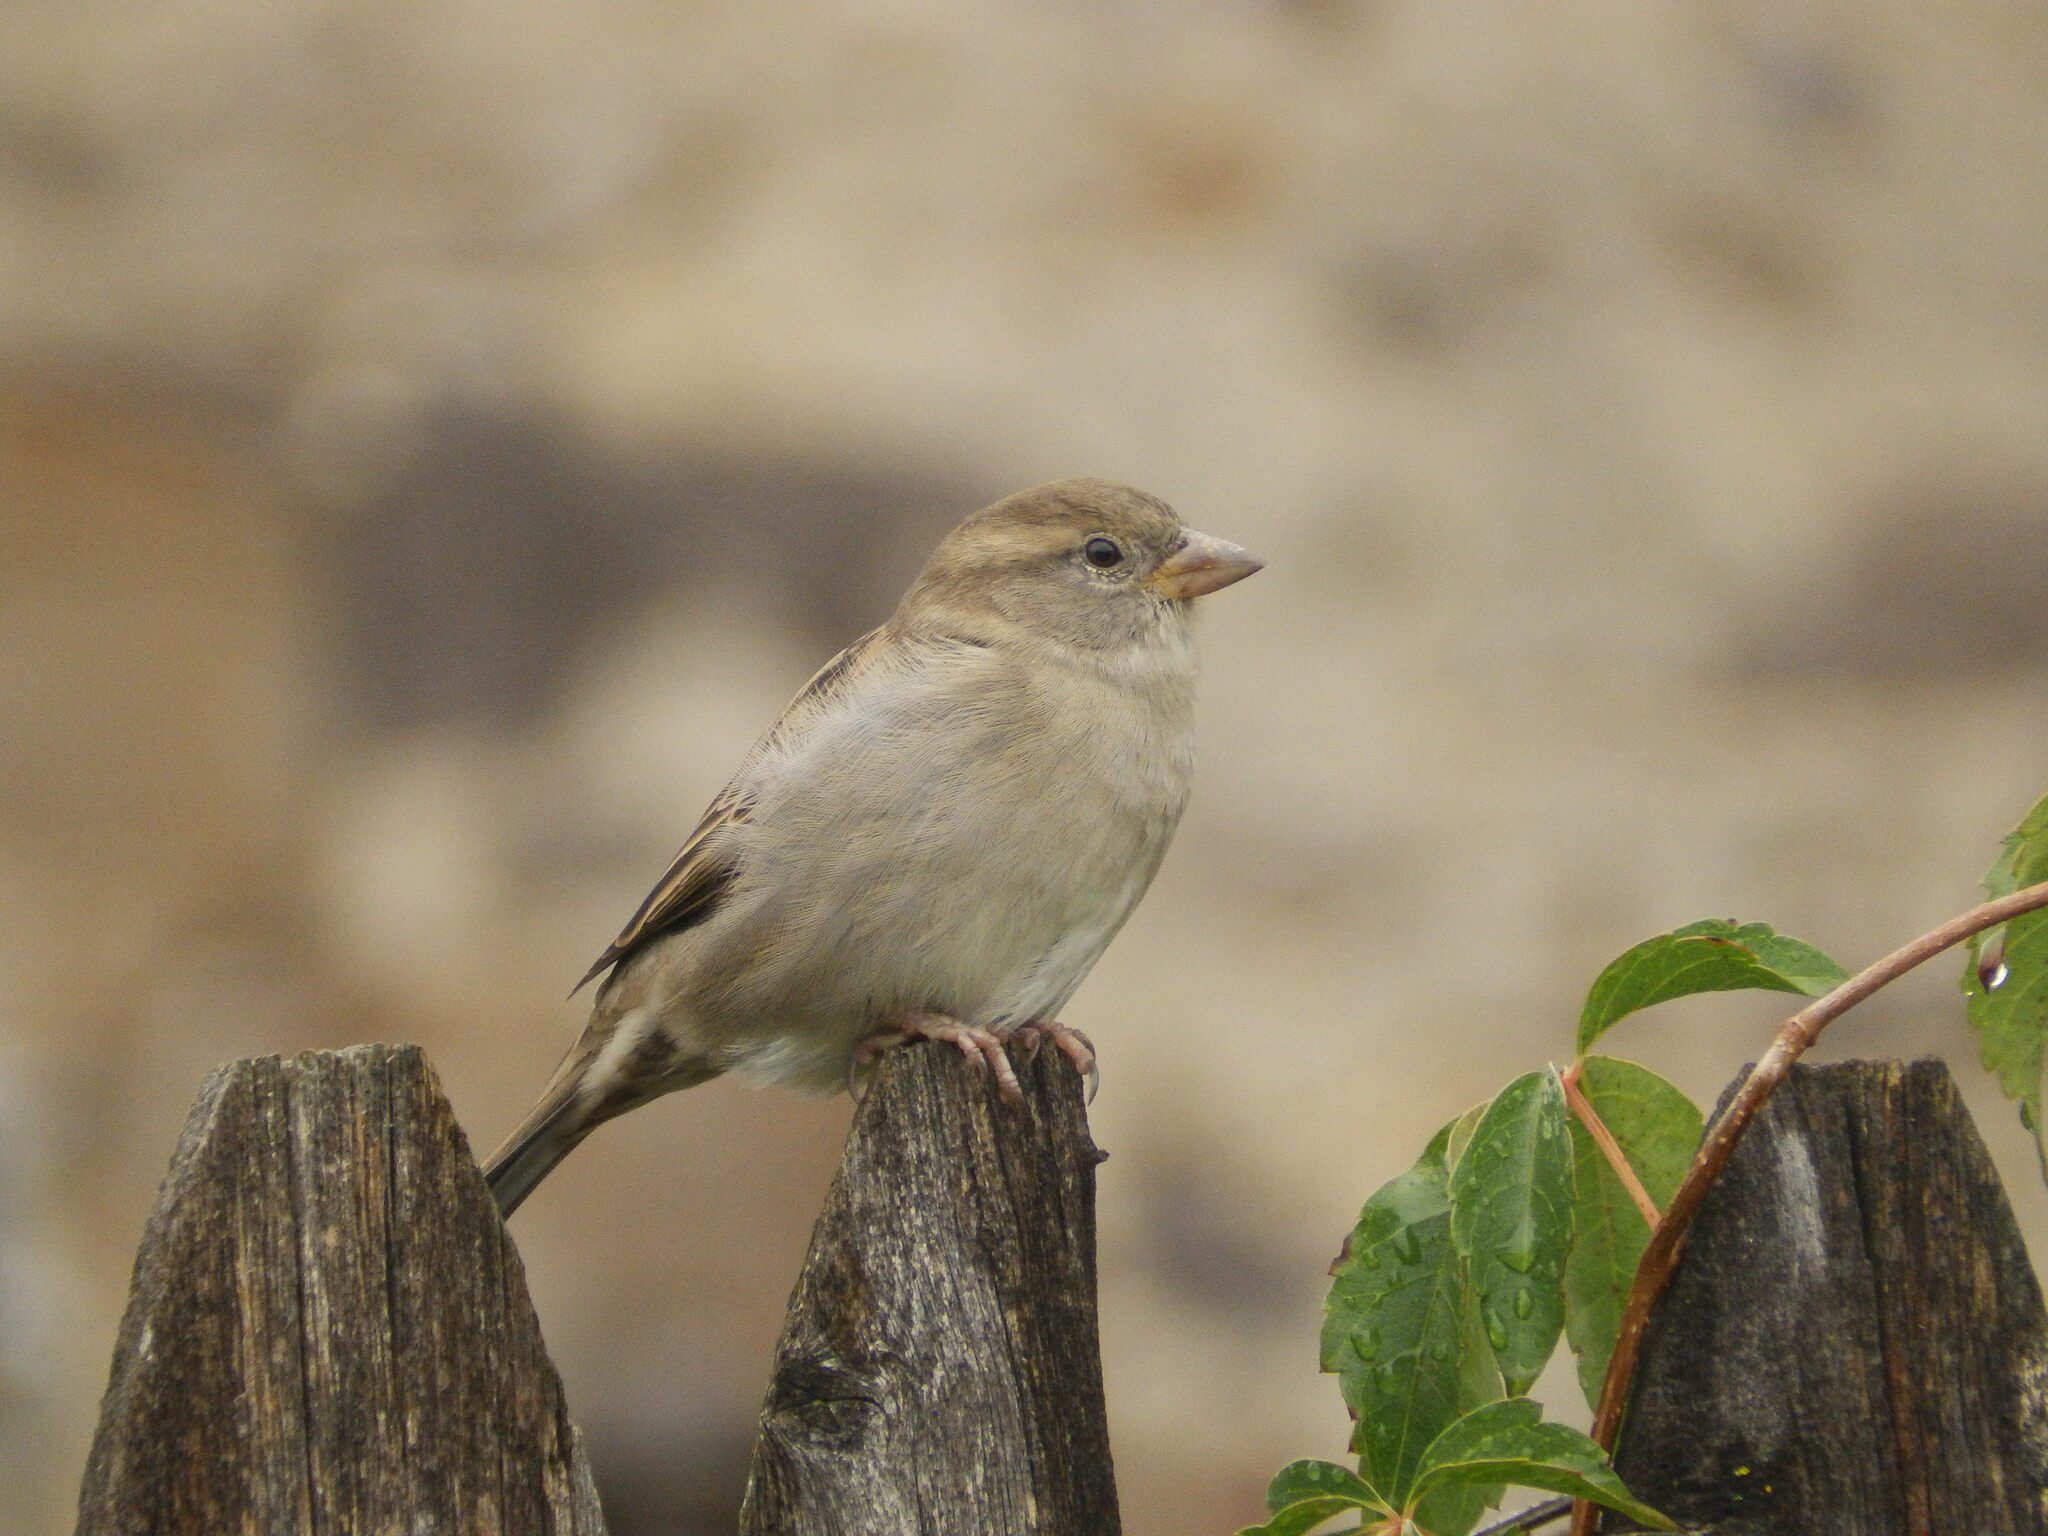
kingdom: Animalia
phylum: Chordata
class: Aves
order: Passeriformes
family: Passeridae
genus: Passer
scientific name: Passer domesticus
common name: House sparrow
